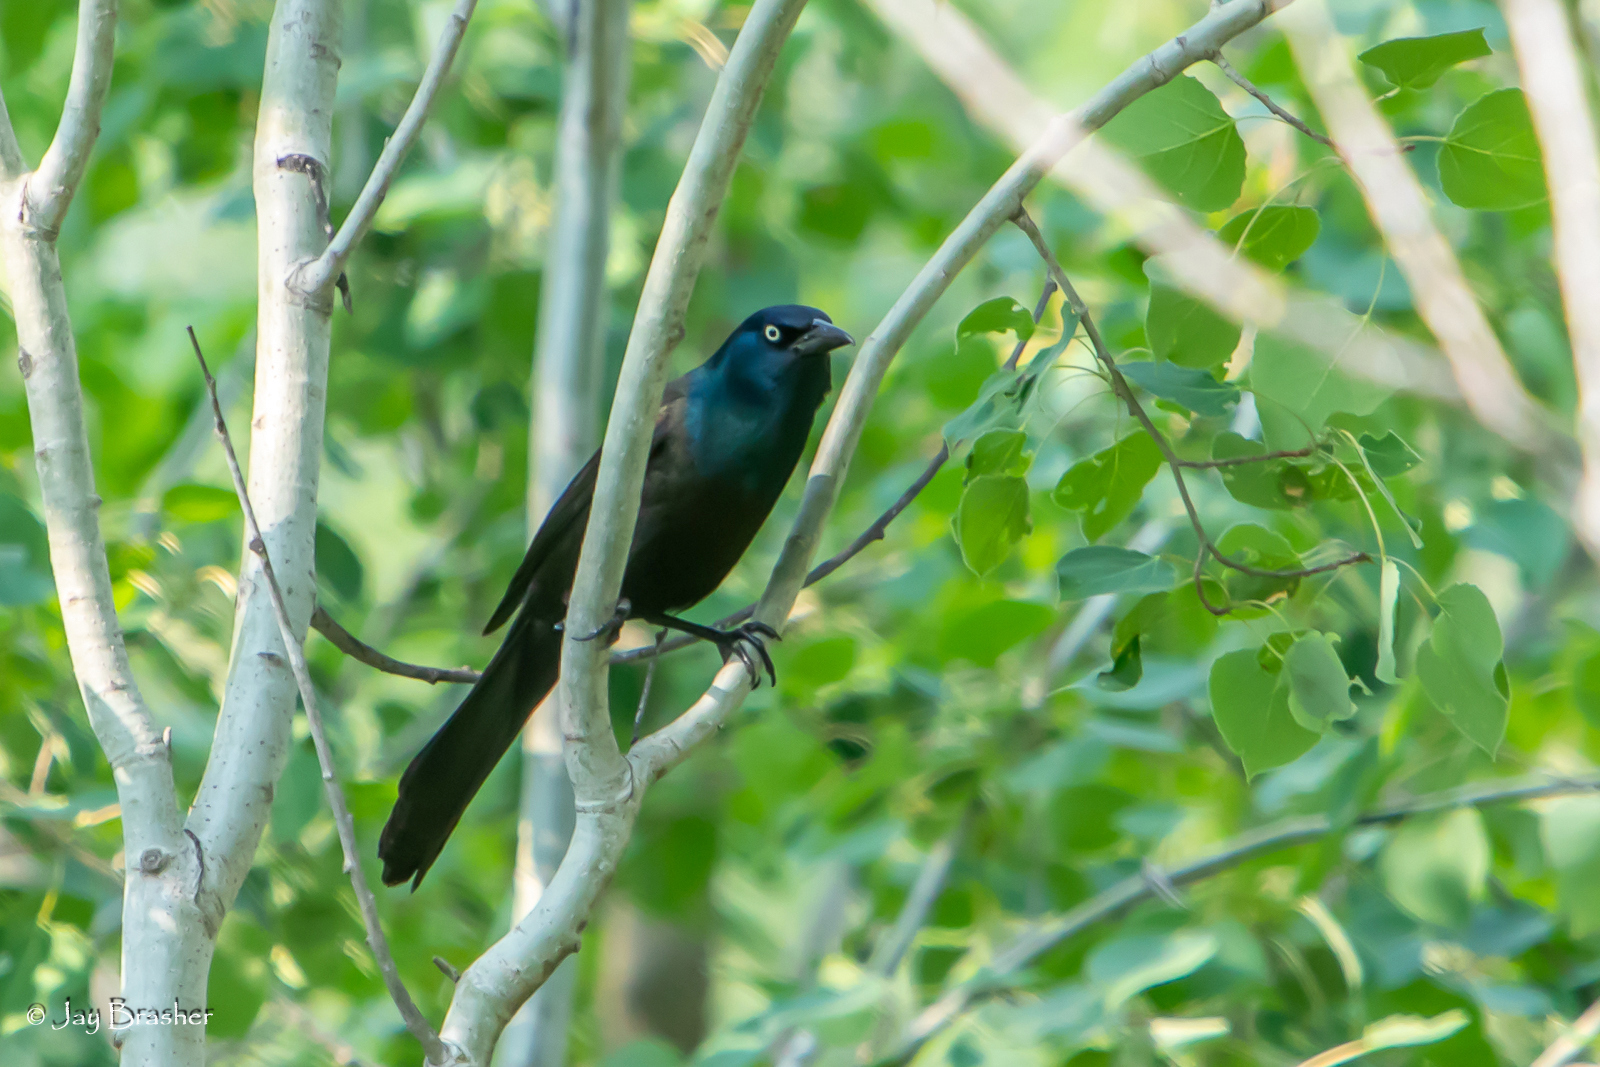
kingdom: Animalia
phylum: Chordata
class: Aves
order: Passeriformes
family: Icteridae
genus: Quiscalus
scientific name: Quiscalus quiscula
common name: Common grackle
